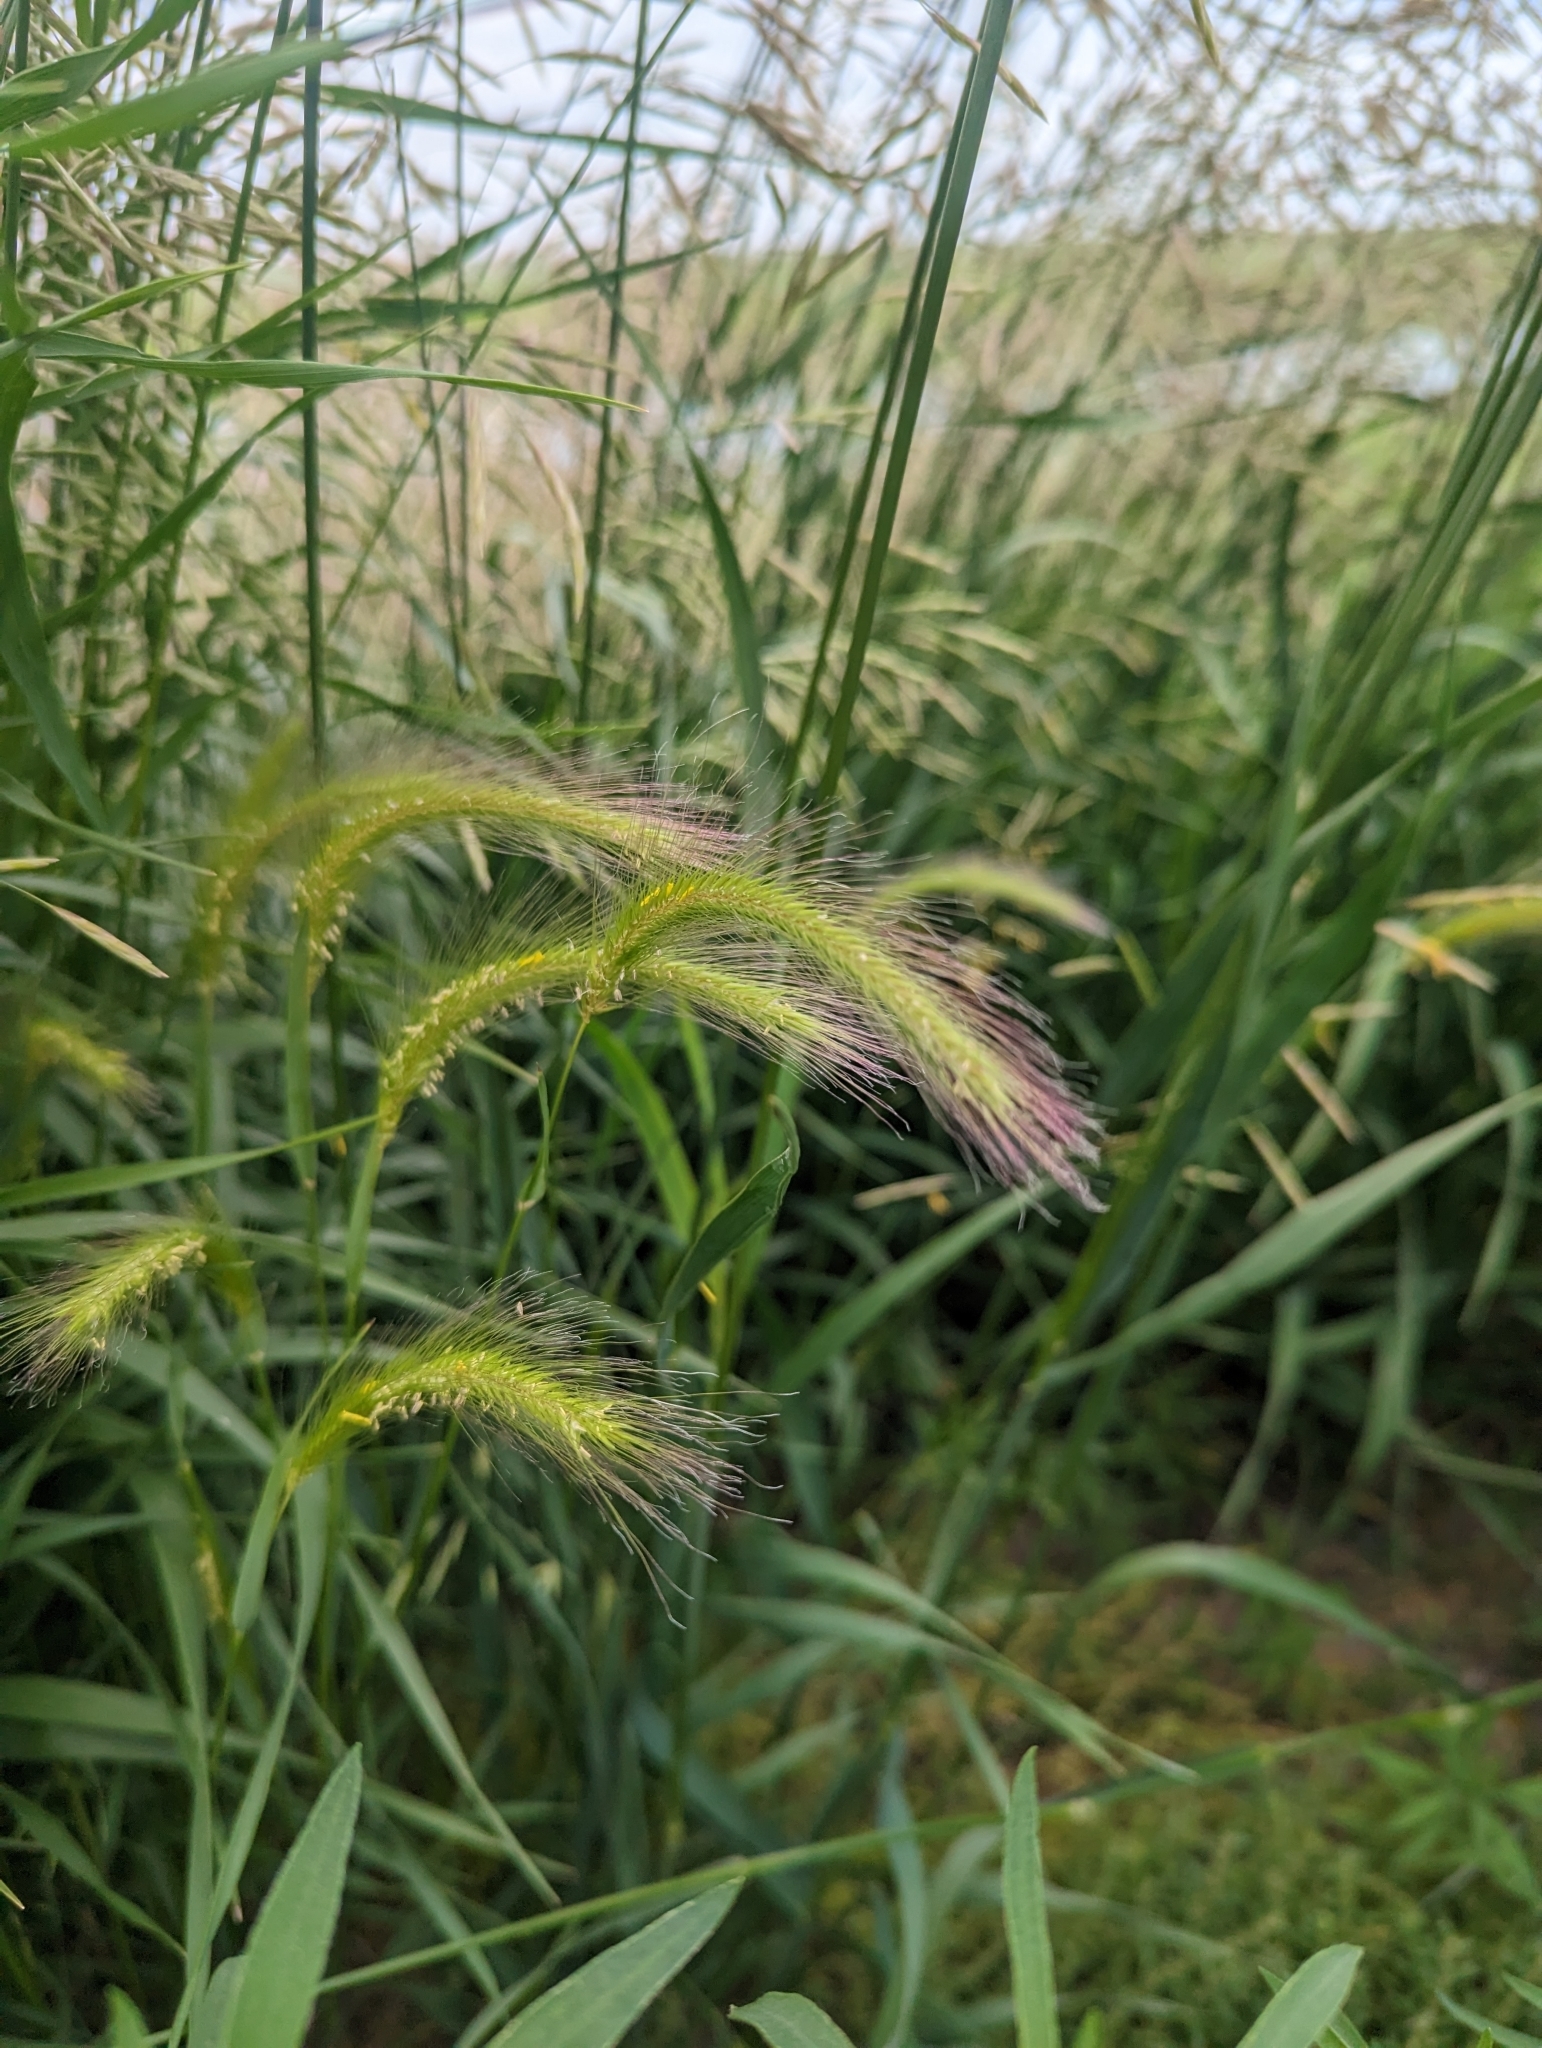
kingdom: Plantae
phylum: Tracheophyta
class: Liliopsida
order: Poales
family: Poaceae
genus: Hordeum
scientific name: Hordeum jubatum
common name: Foxtail barley
